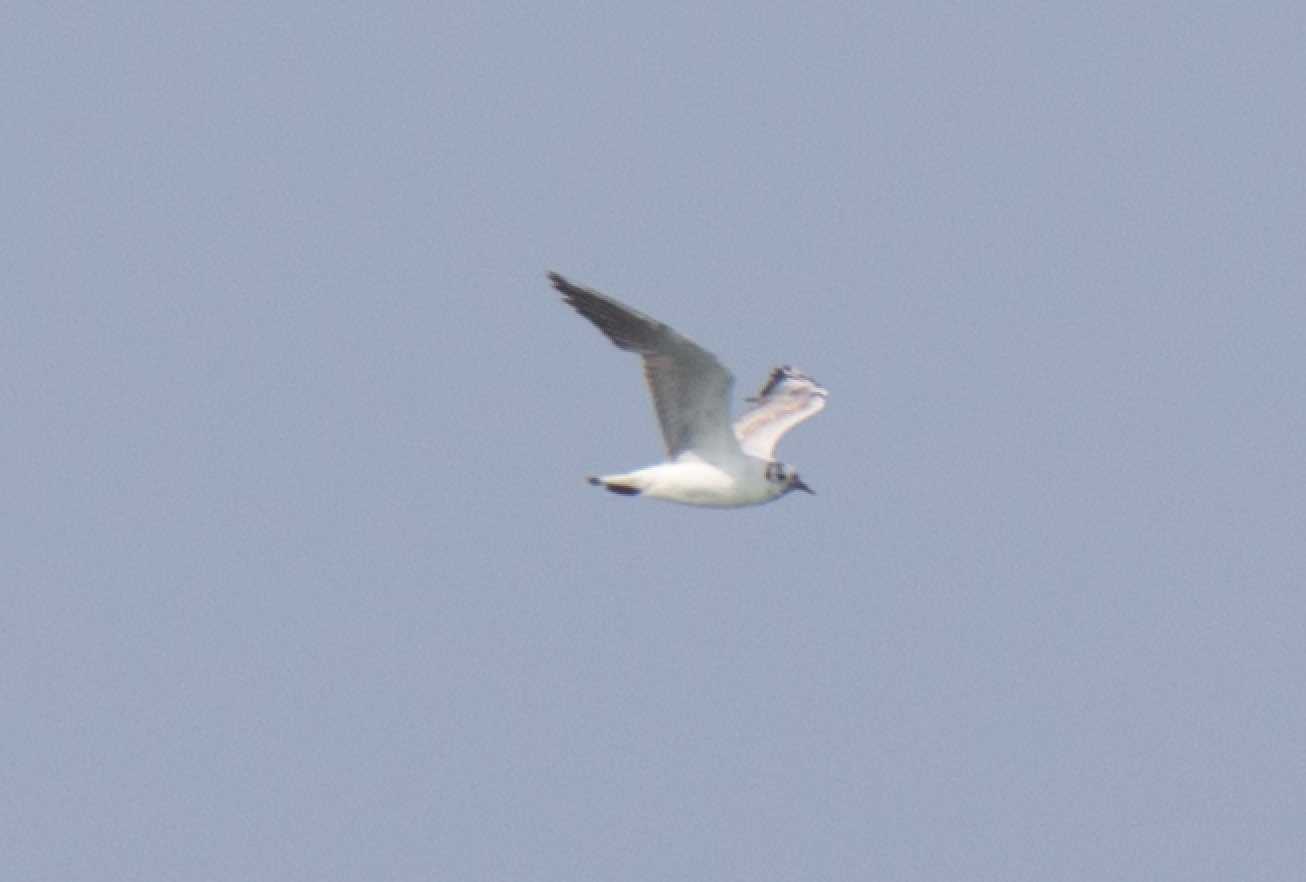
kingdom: Animalia
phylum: Chordata
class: Aves
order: Charadriiformes
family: Laridae
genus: Chroicocephalus
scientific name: Chroicocephalus ridibundus
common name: Black-headed gull
